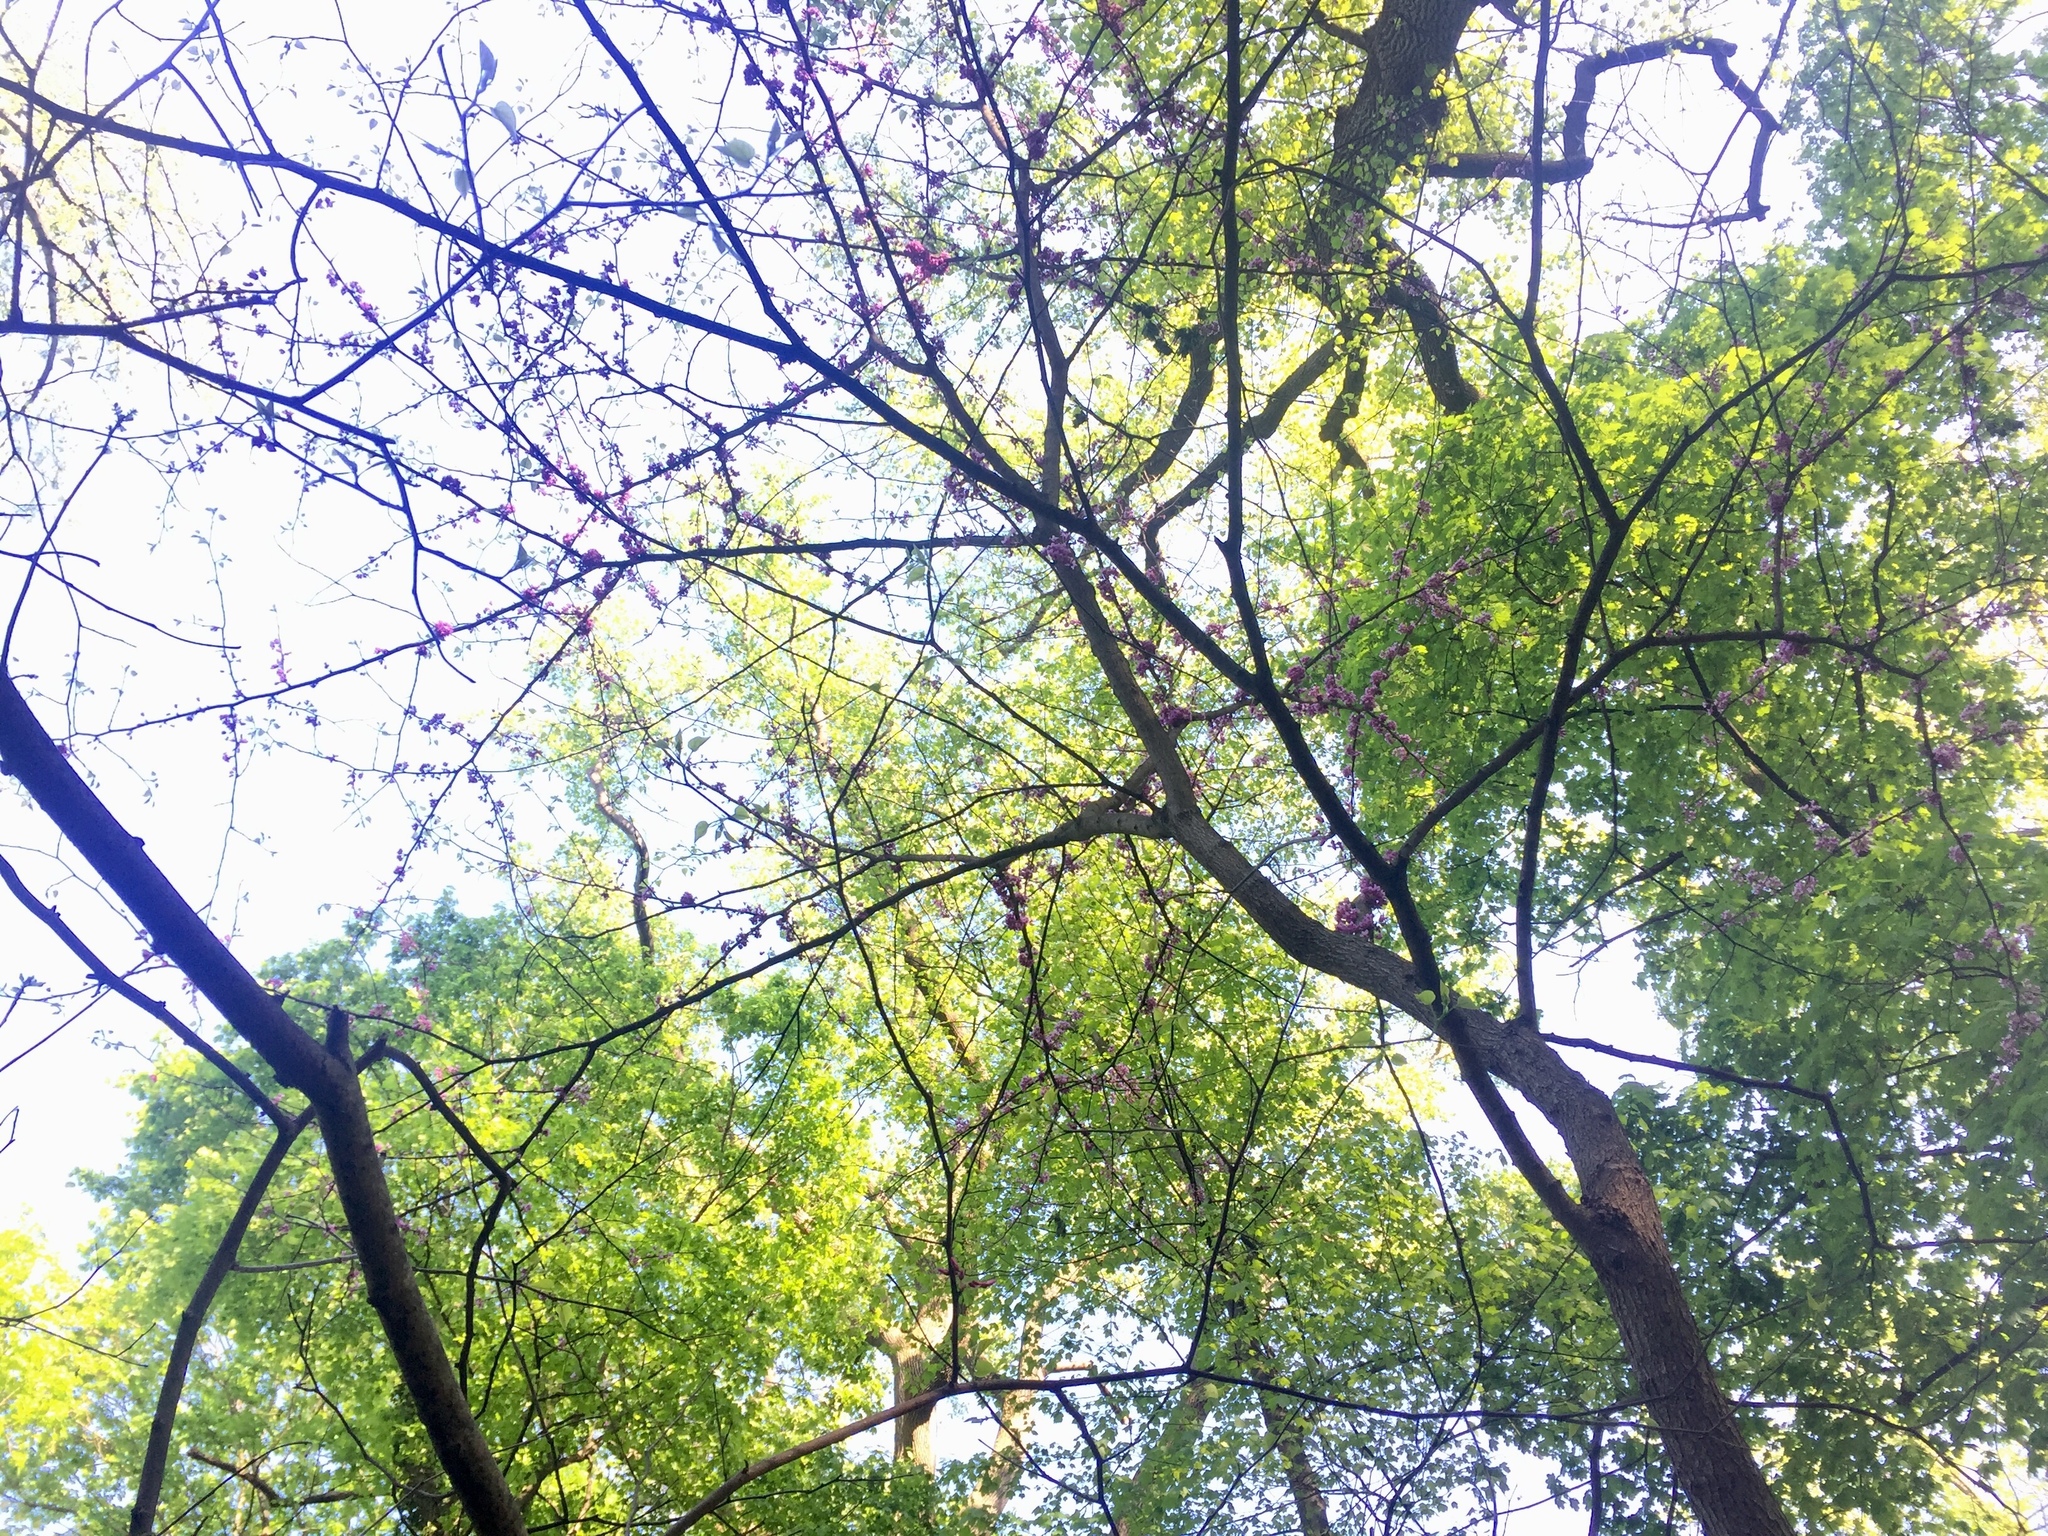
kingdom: Plantae
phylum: Tracheophyta
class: Magnoliopsida
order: Fabales
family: Fabaceae
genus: Cercis
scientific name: Cercis canadensis
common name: Eastern redbud
